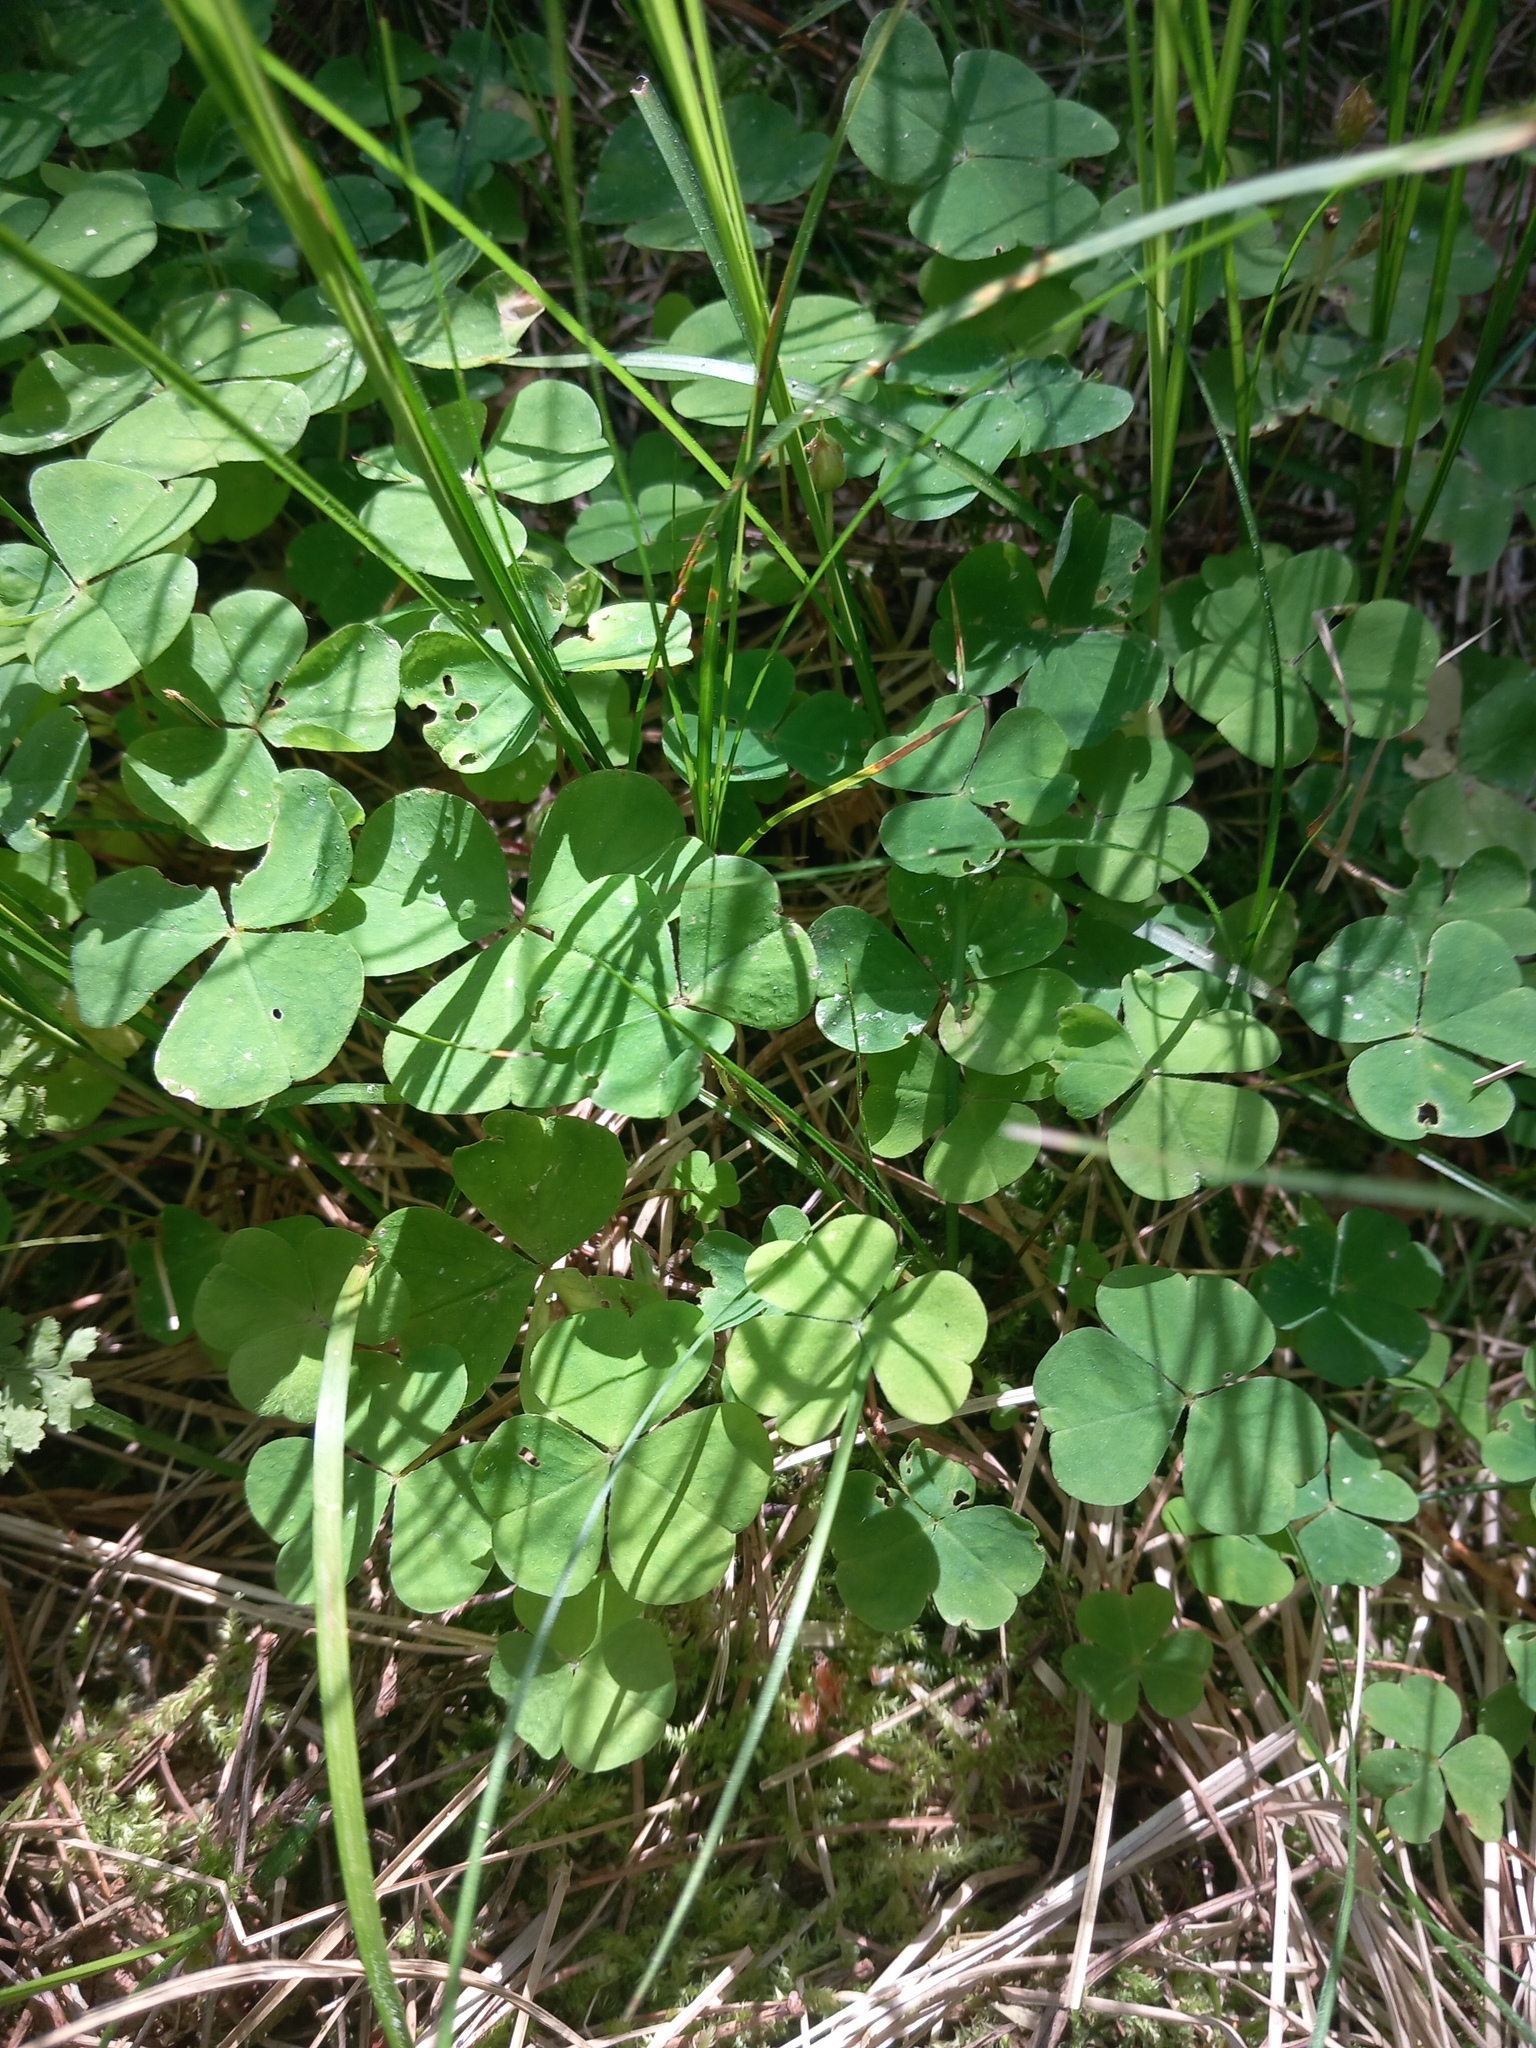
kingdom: Plantae
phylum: Tracheophyta
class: Magnoliopsida
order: Oxalidales
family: Oxalidaceae
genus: Oxalis
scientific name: Oxalis acetosella
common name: Wood-sorrel
